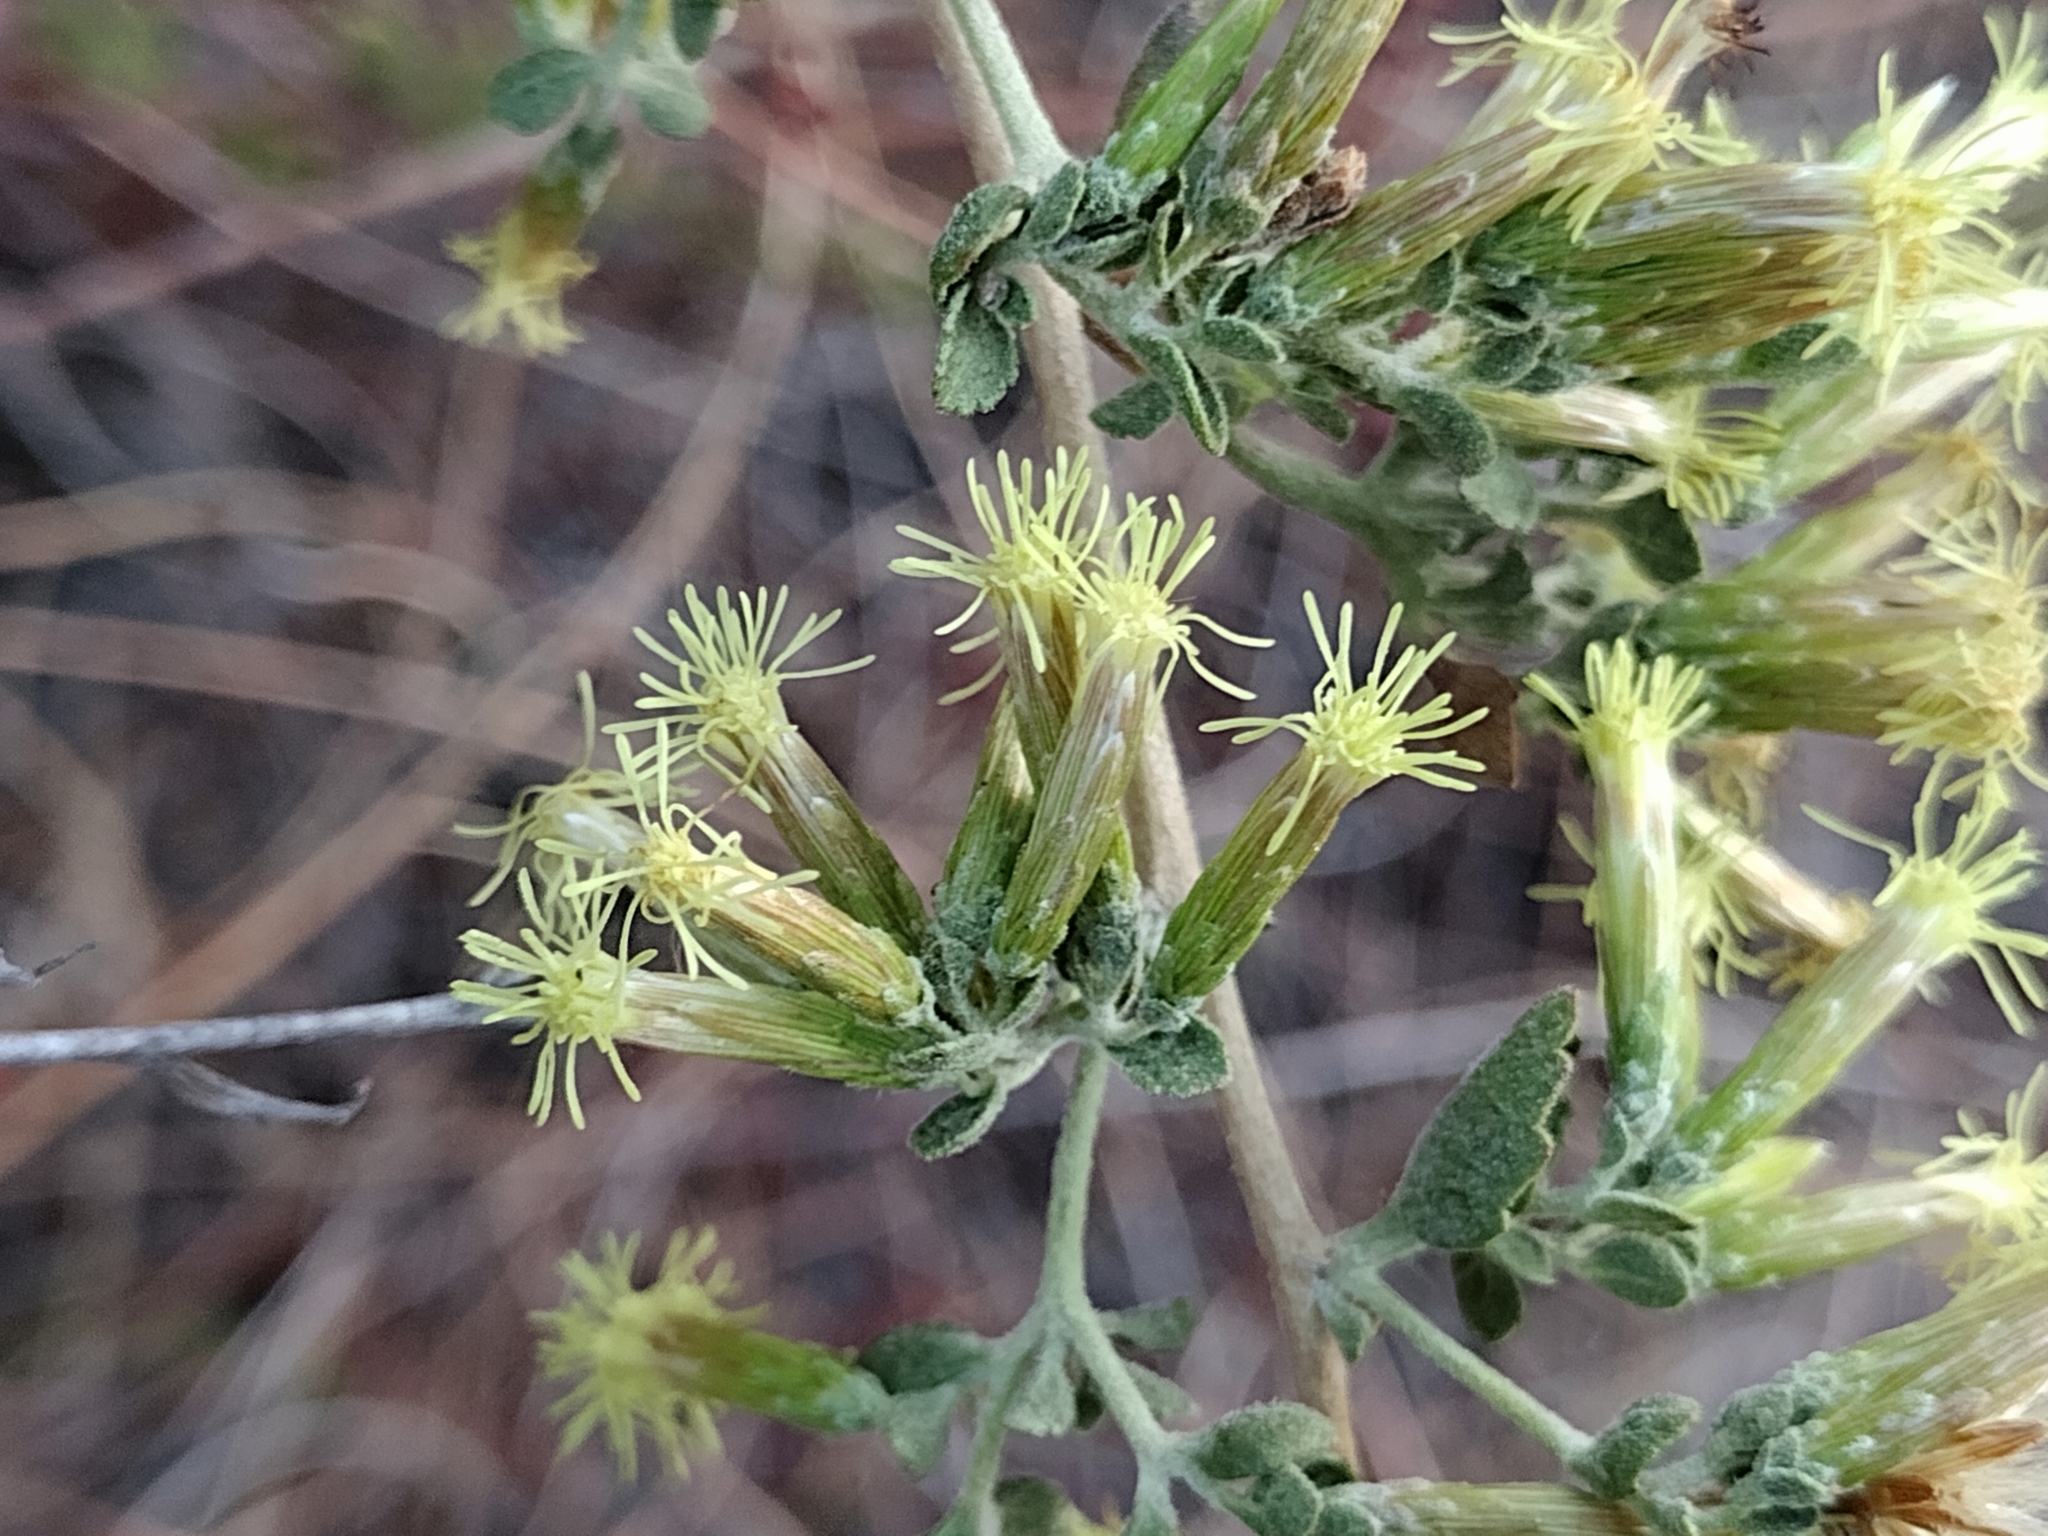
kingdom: Plantae
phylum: Tracheophyta
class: Magnoliopsida
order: Asterales
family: Asteraceae
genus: Brickellia
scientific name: Brickellia californica
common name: California brickellbush
